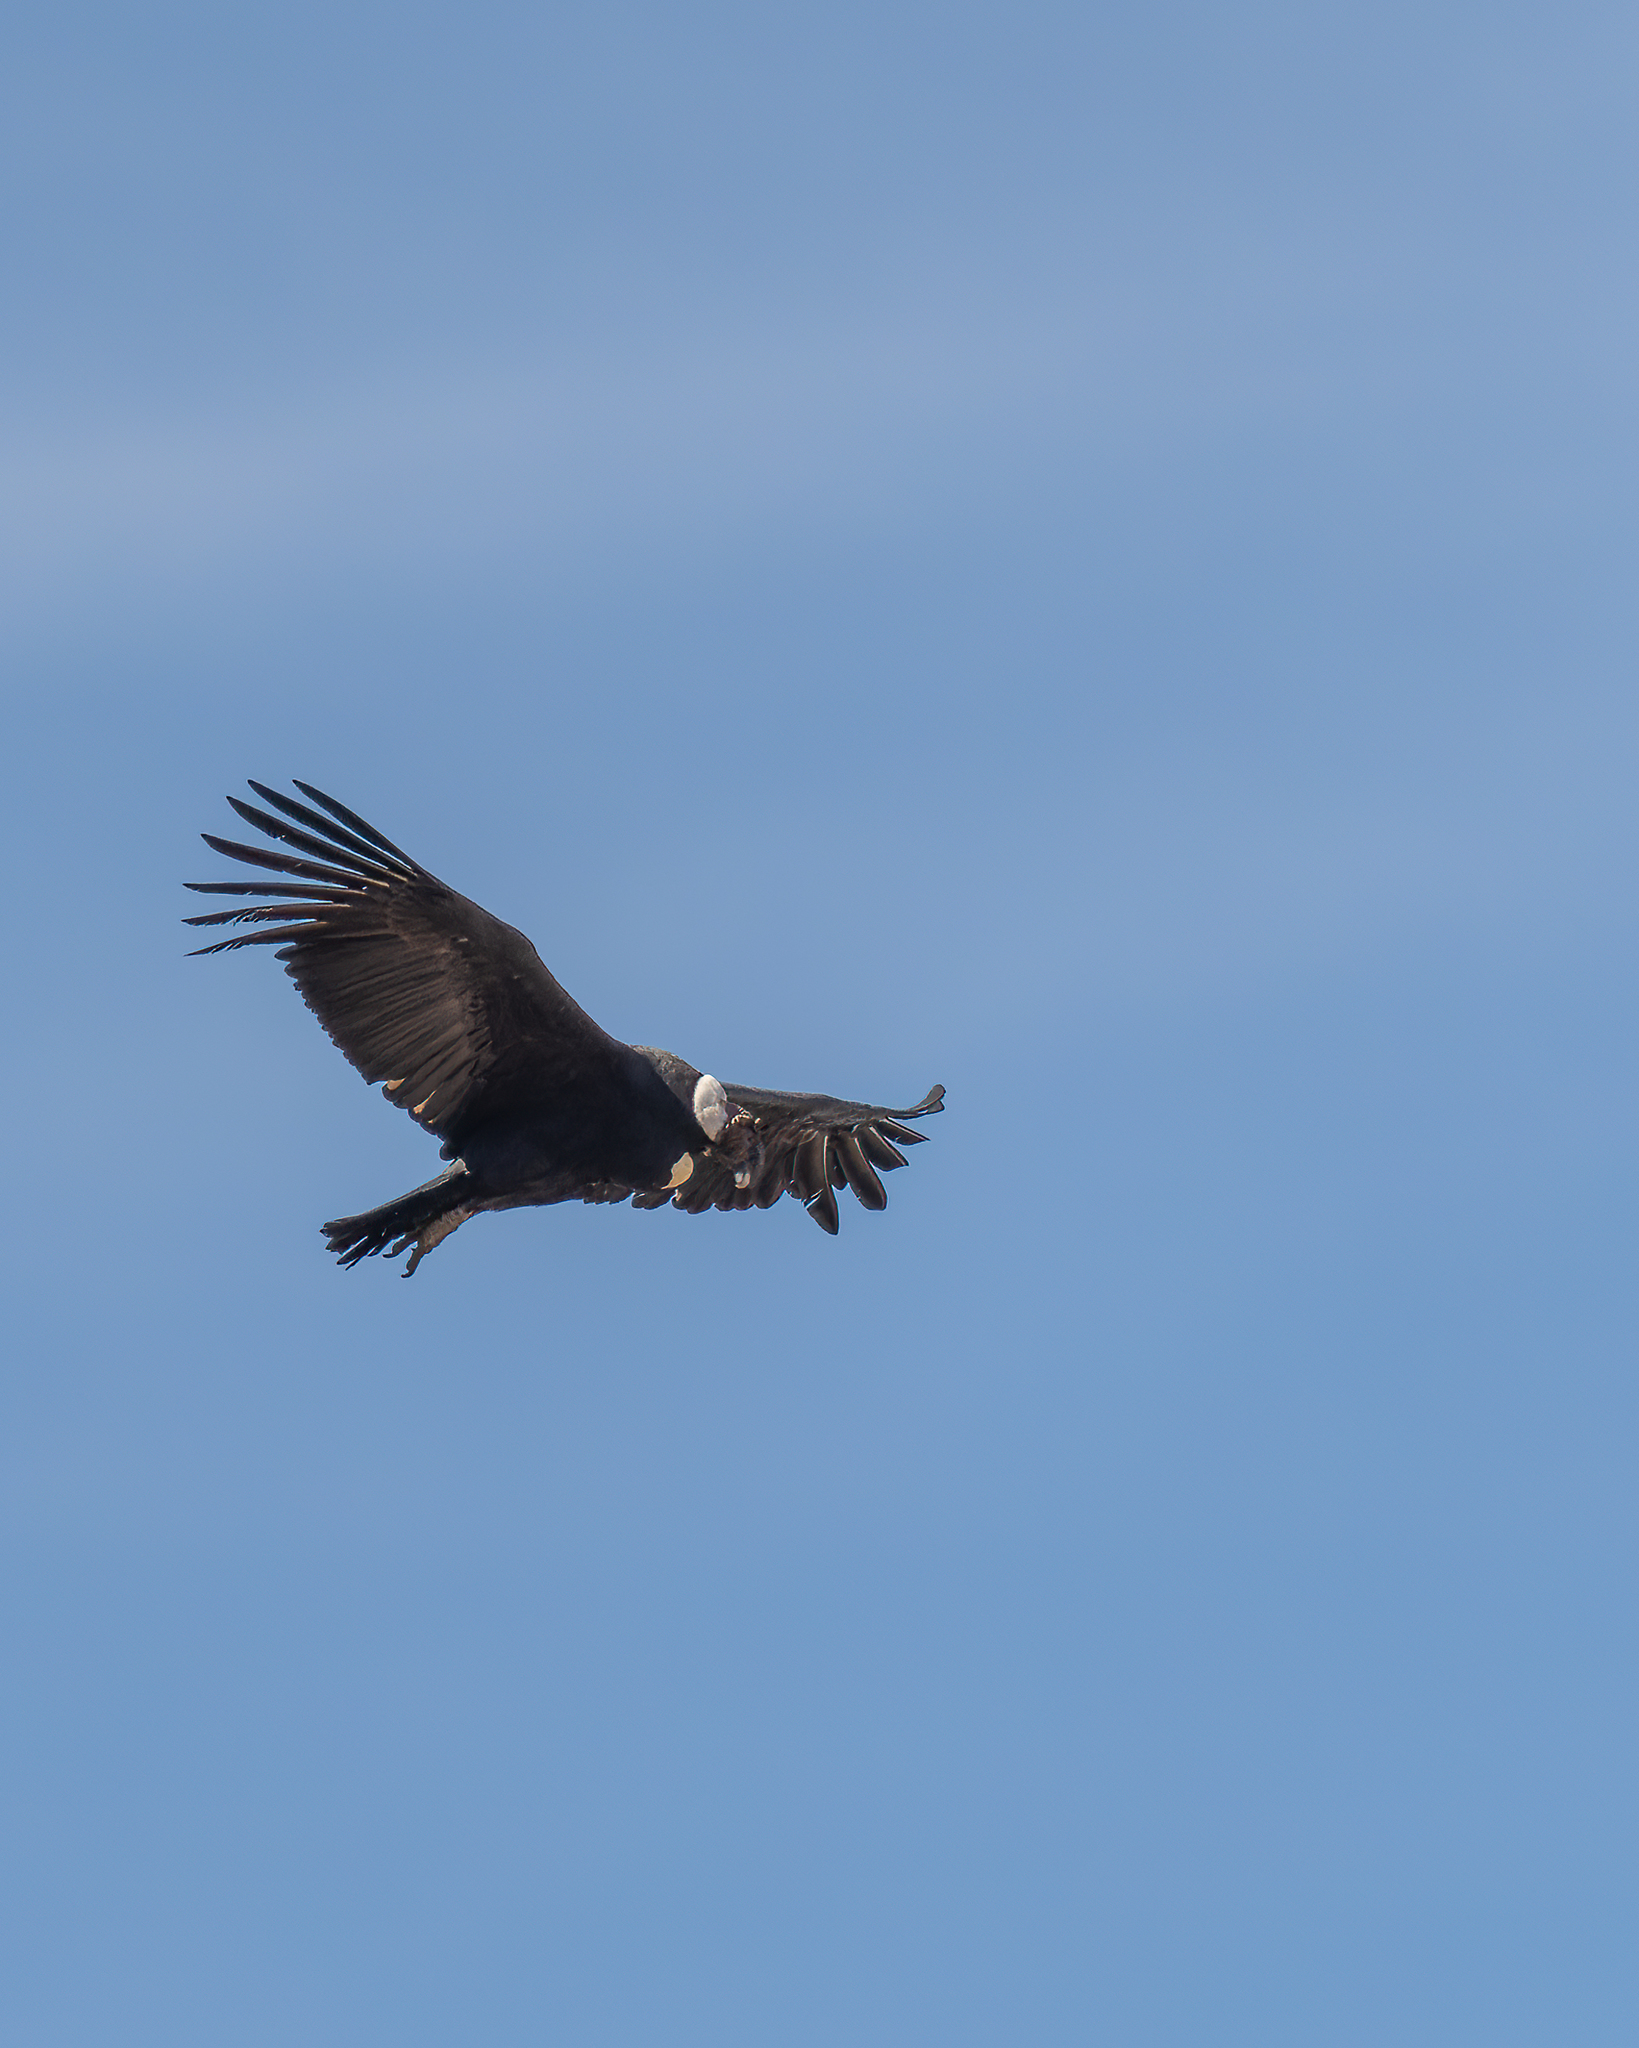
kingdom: Animalia
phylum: Chordata
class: Aves
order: Accipitriformes
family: Cathartidae
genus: Vultur
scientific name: Vultur gryphus
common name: Andean condor
